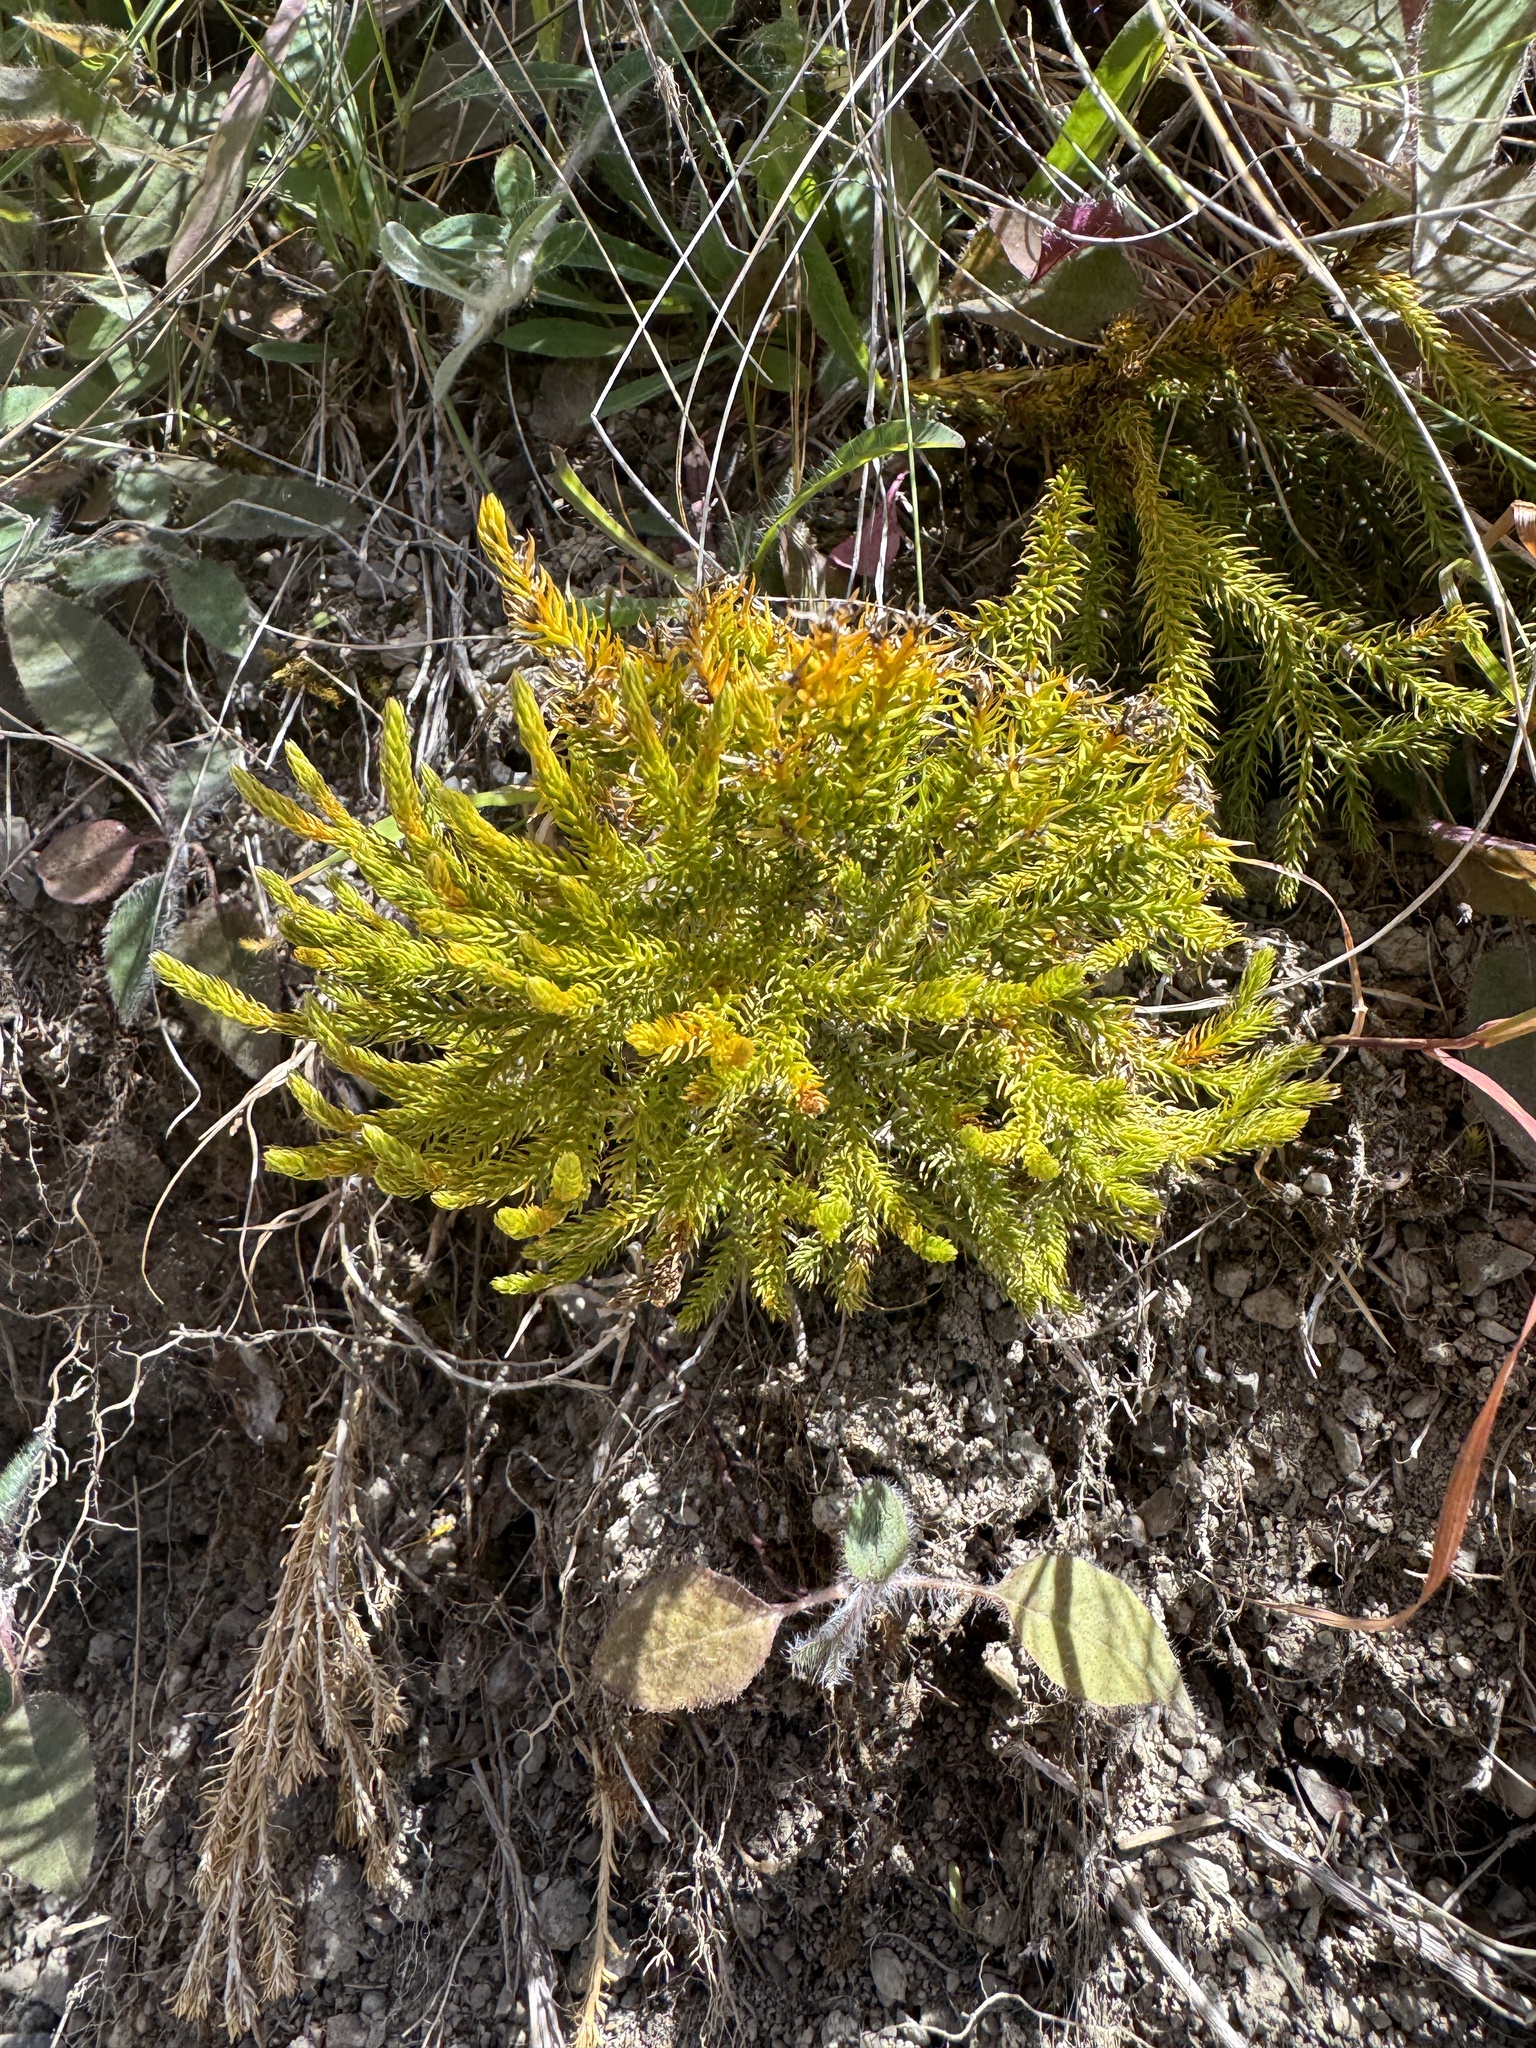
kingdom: Plantae
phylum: Tracheophyta
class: Lycopodiopsida
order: Lycopodiales
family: Lycopodiaceae
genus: Austrolycopodium
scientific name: Austrolycopodium fastigiatum
